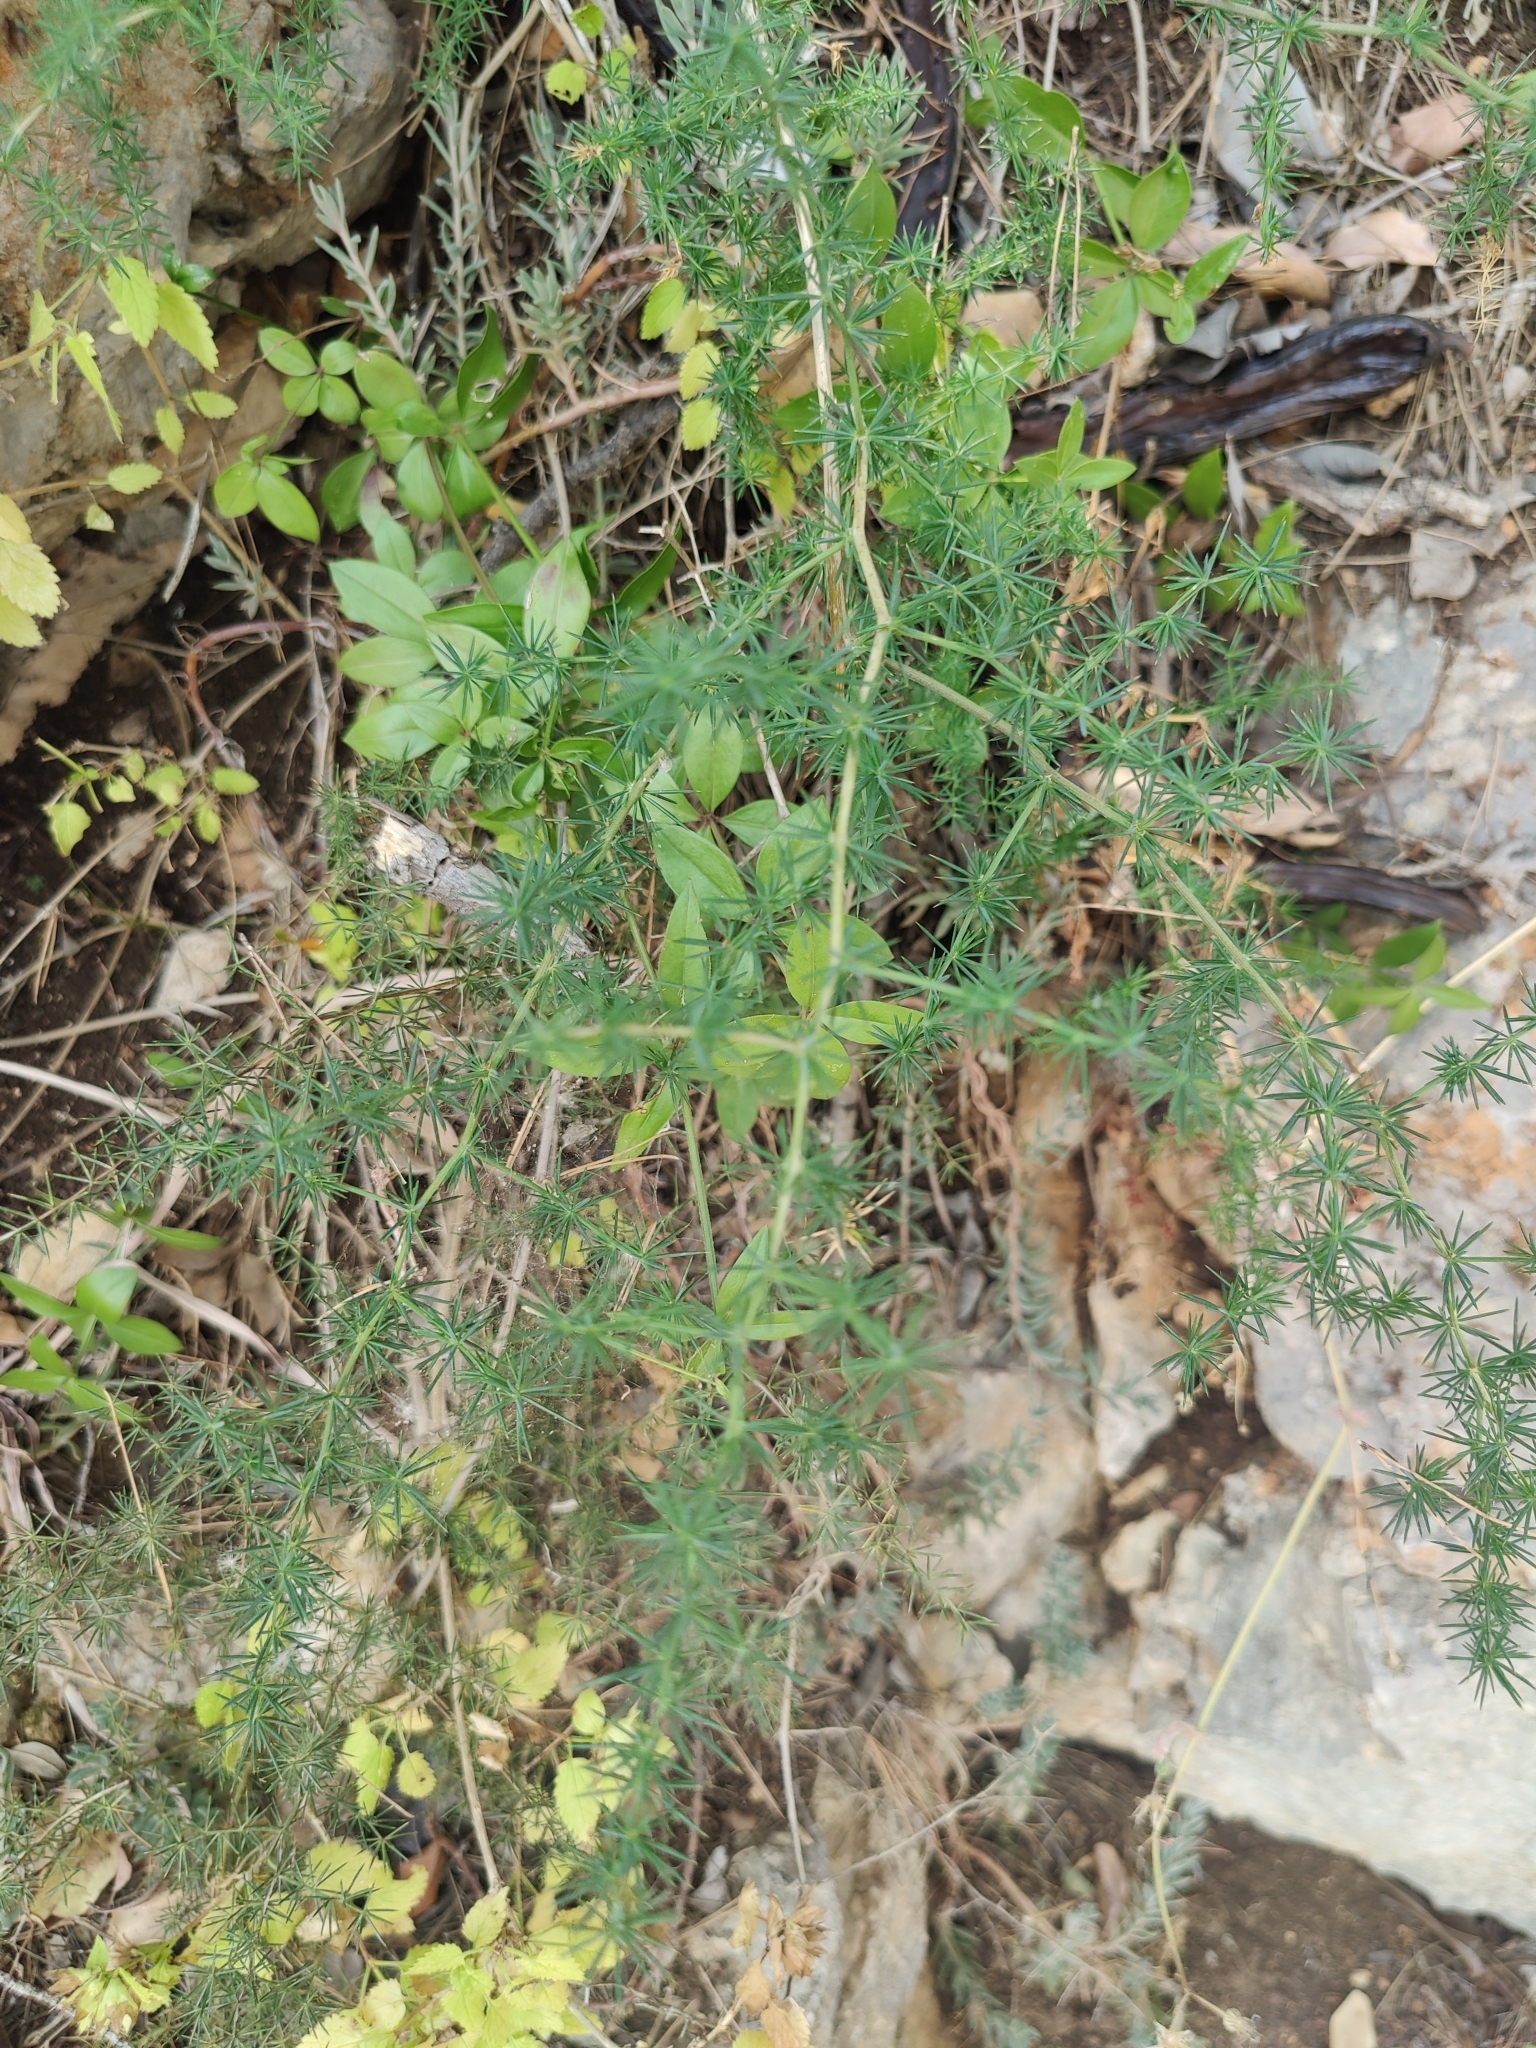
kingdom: Plantae
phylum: Tracheophyta
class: Liliopsida
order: Asparagales
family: Asparagaceae
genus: Asparagus
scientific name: Asparagus acutifolius
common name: Wild asparagus
